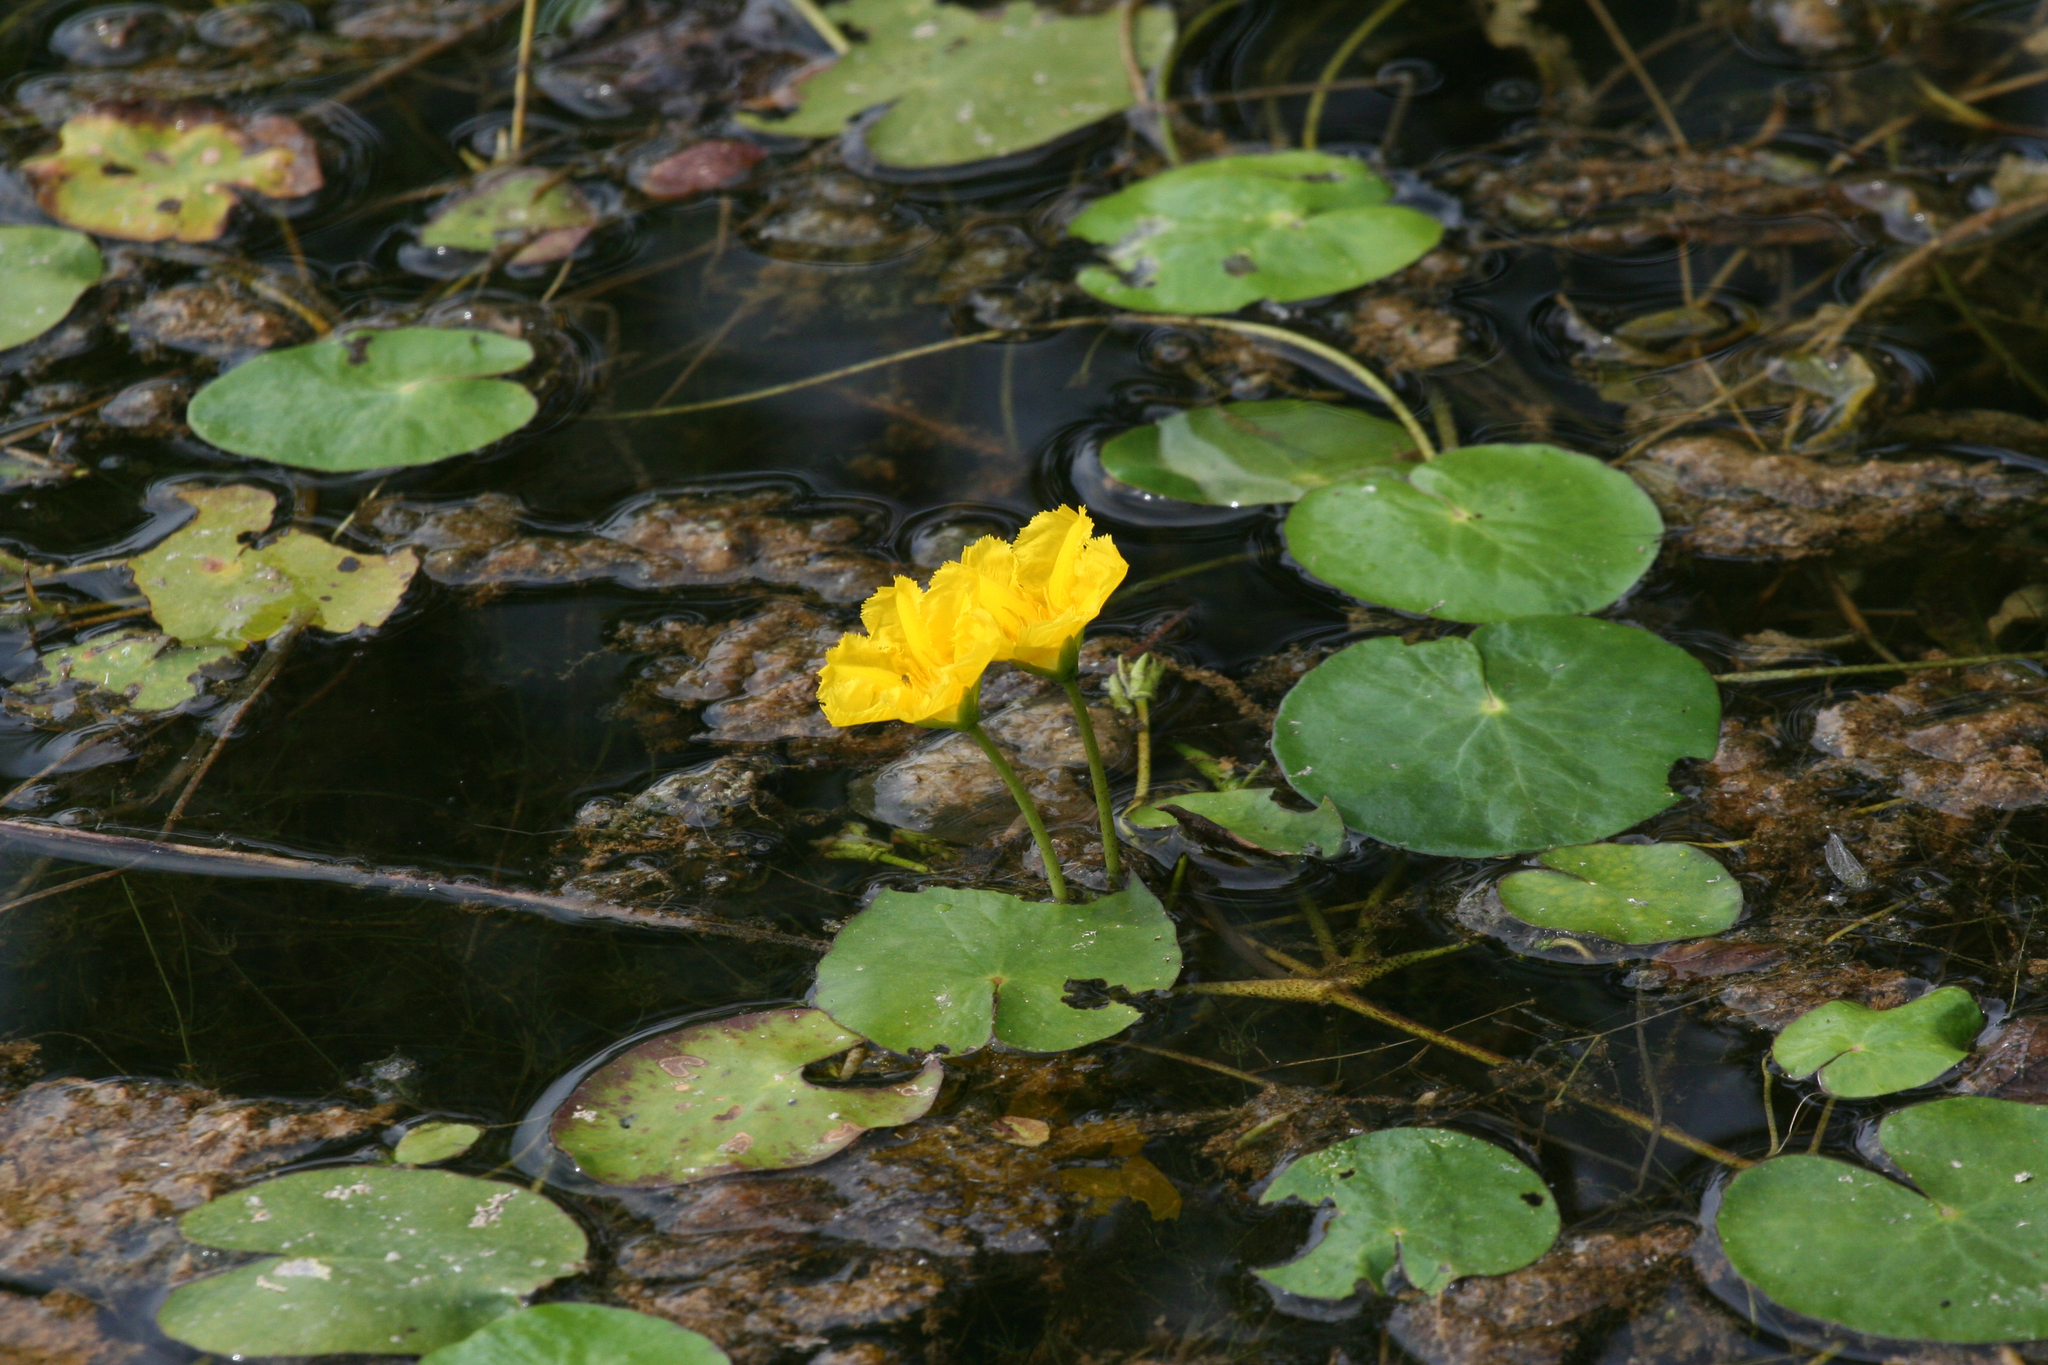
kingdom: Plantae
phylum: Tracheophyta
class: Magnoliopsida
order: Asterales
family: Menyanthaceae
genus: Nymphoides
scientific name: Nymphoides peltata
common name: Fringed water-lily
